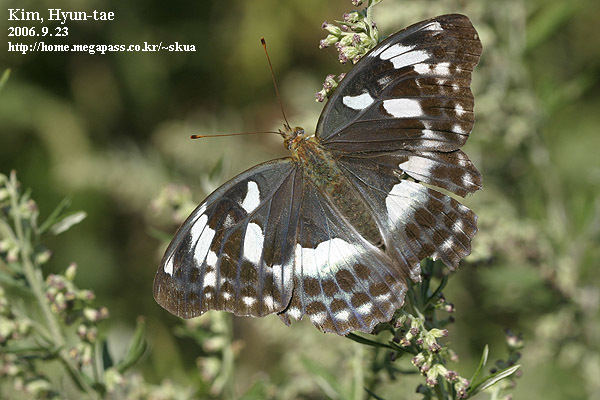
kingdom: Animalia
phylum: Arthropoda
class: Insecta
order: Lepidoptera
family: Nymphalidae
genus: Damora
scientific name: Damora sagana
